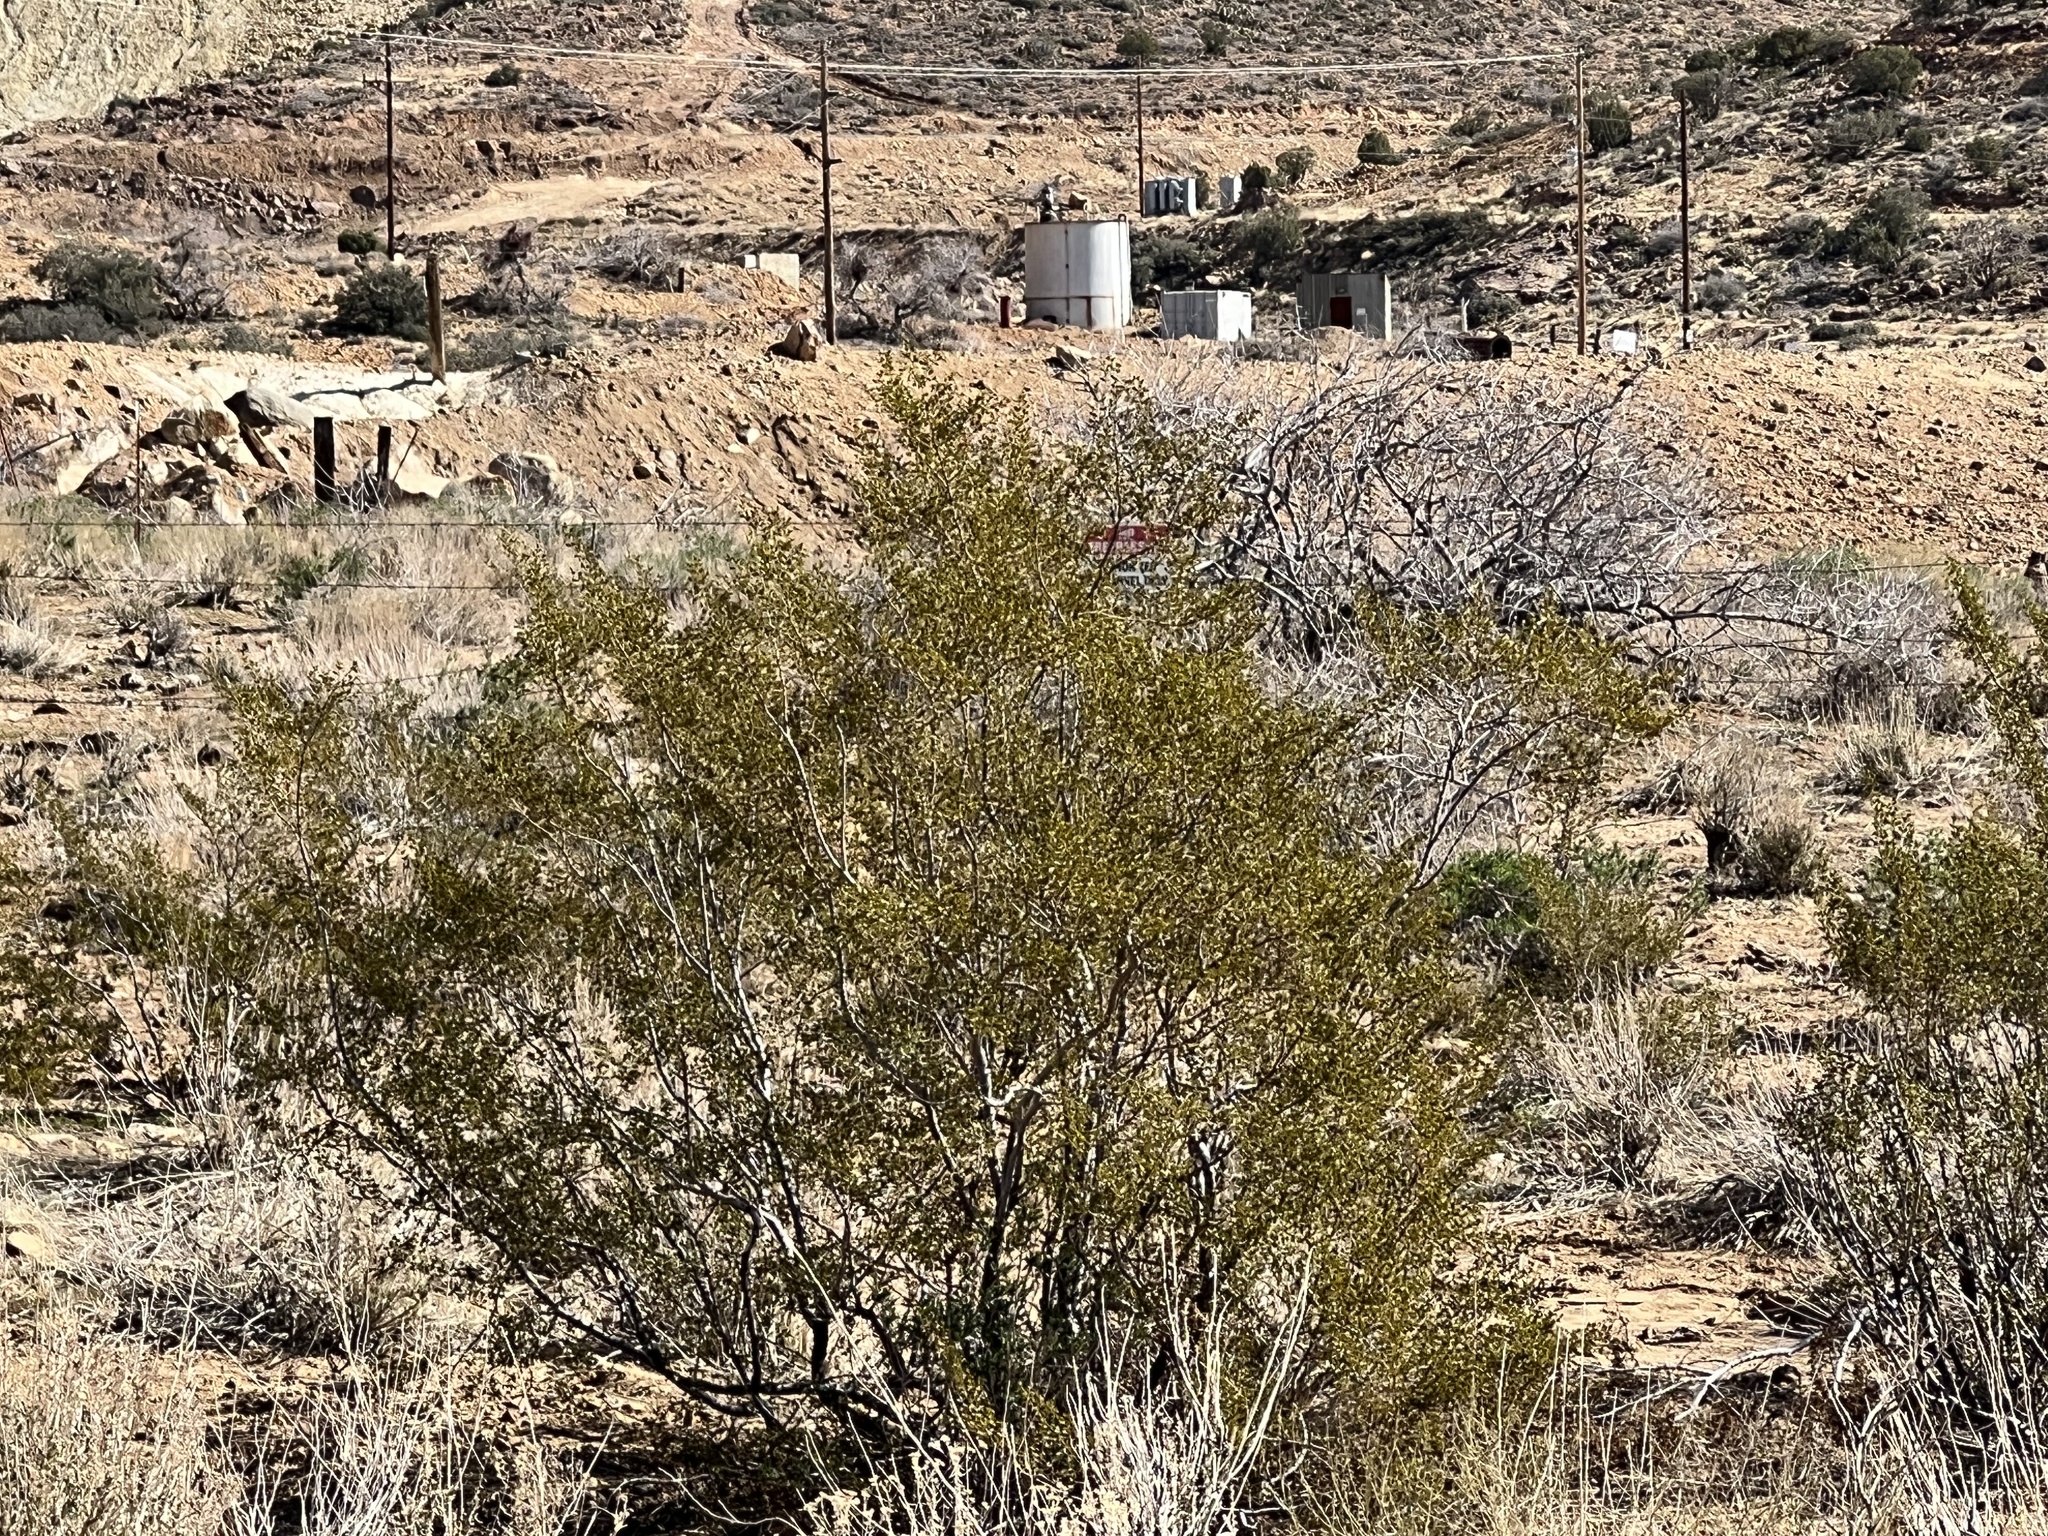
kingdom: Plantae
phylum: Tracheophyta
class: Magnoliopsida
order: Zygophyllales
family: Zygophyllaceae
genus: Larrea
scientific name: Larrea tridentata
